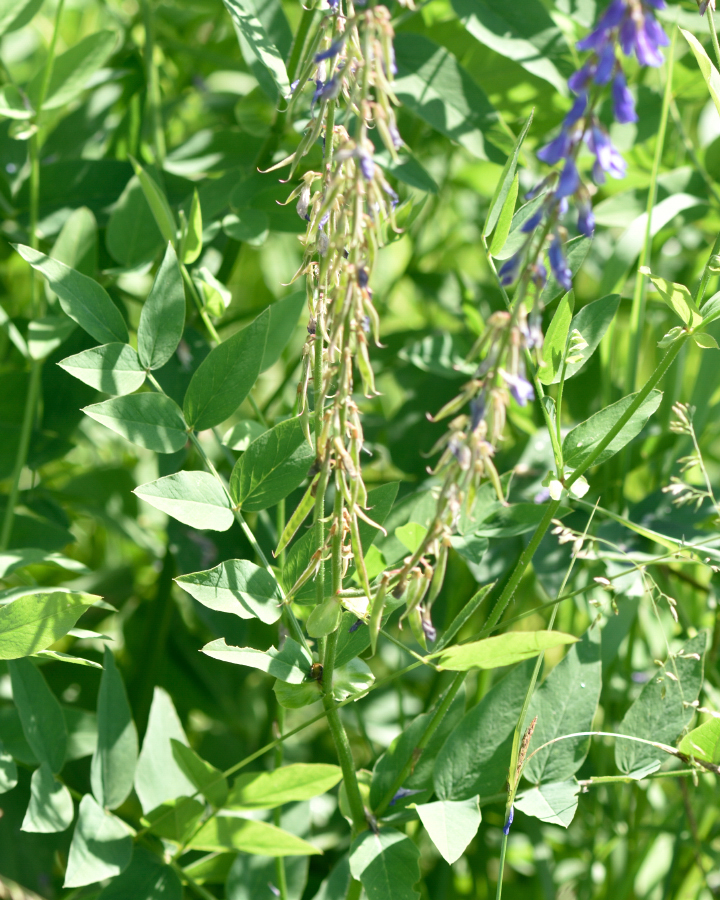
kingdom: Plantae
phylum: Tracheophyta
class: Magnoliopsida
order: Fabales
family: Fabaceae
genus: Galega
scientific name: Galega orientalis
